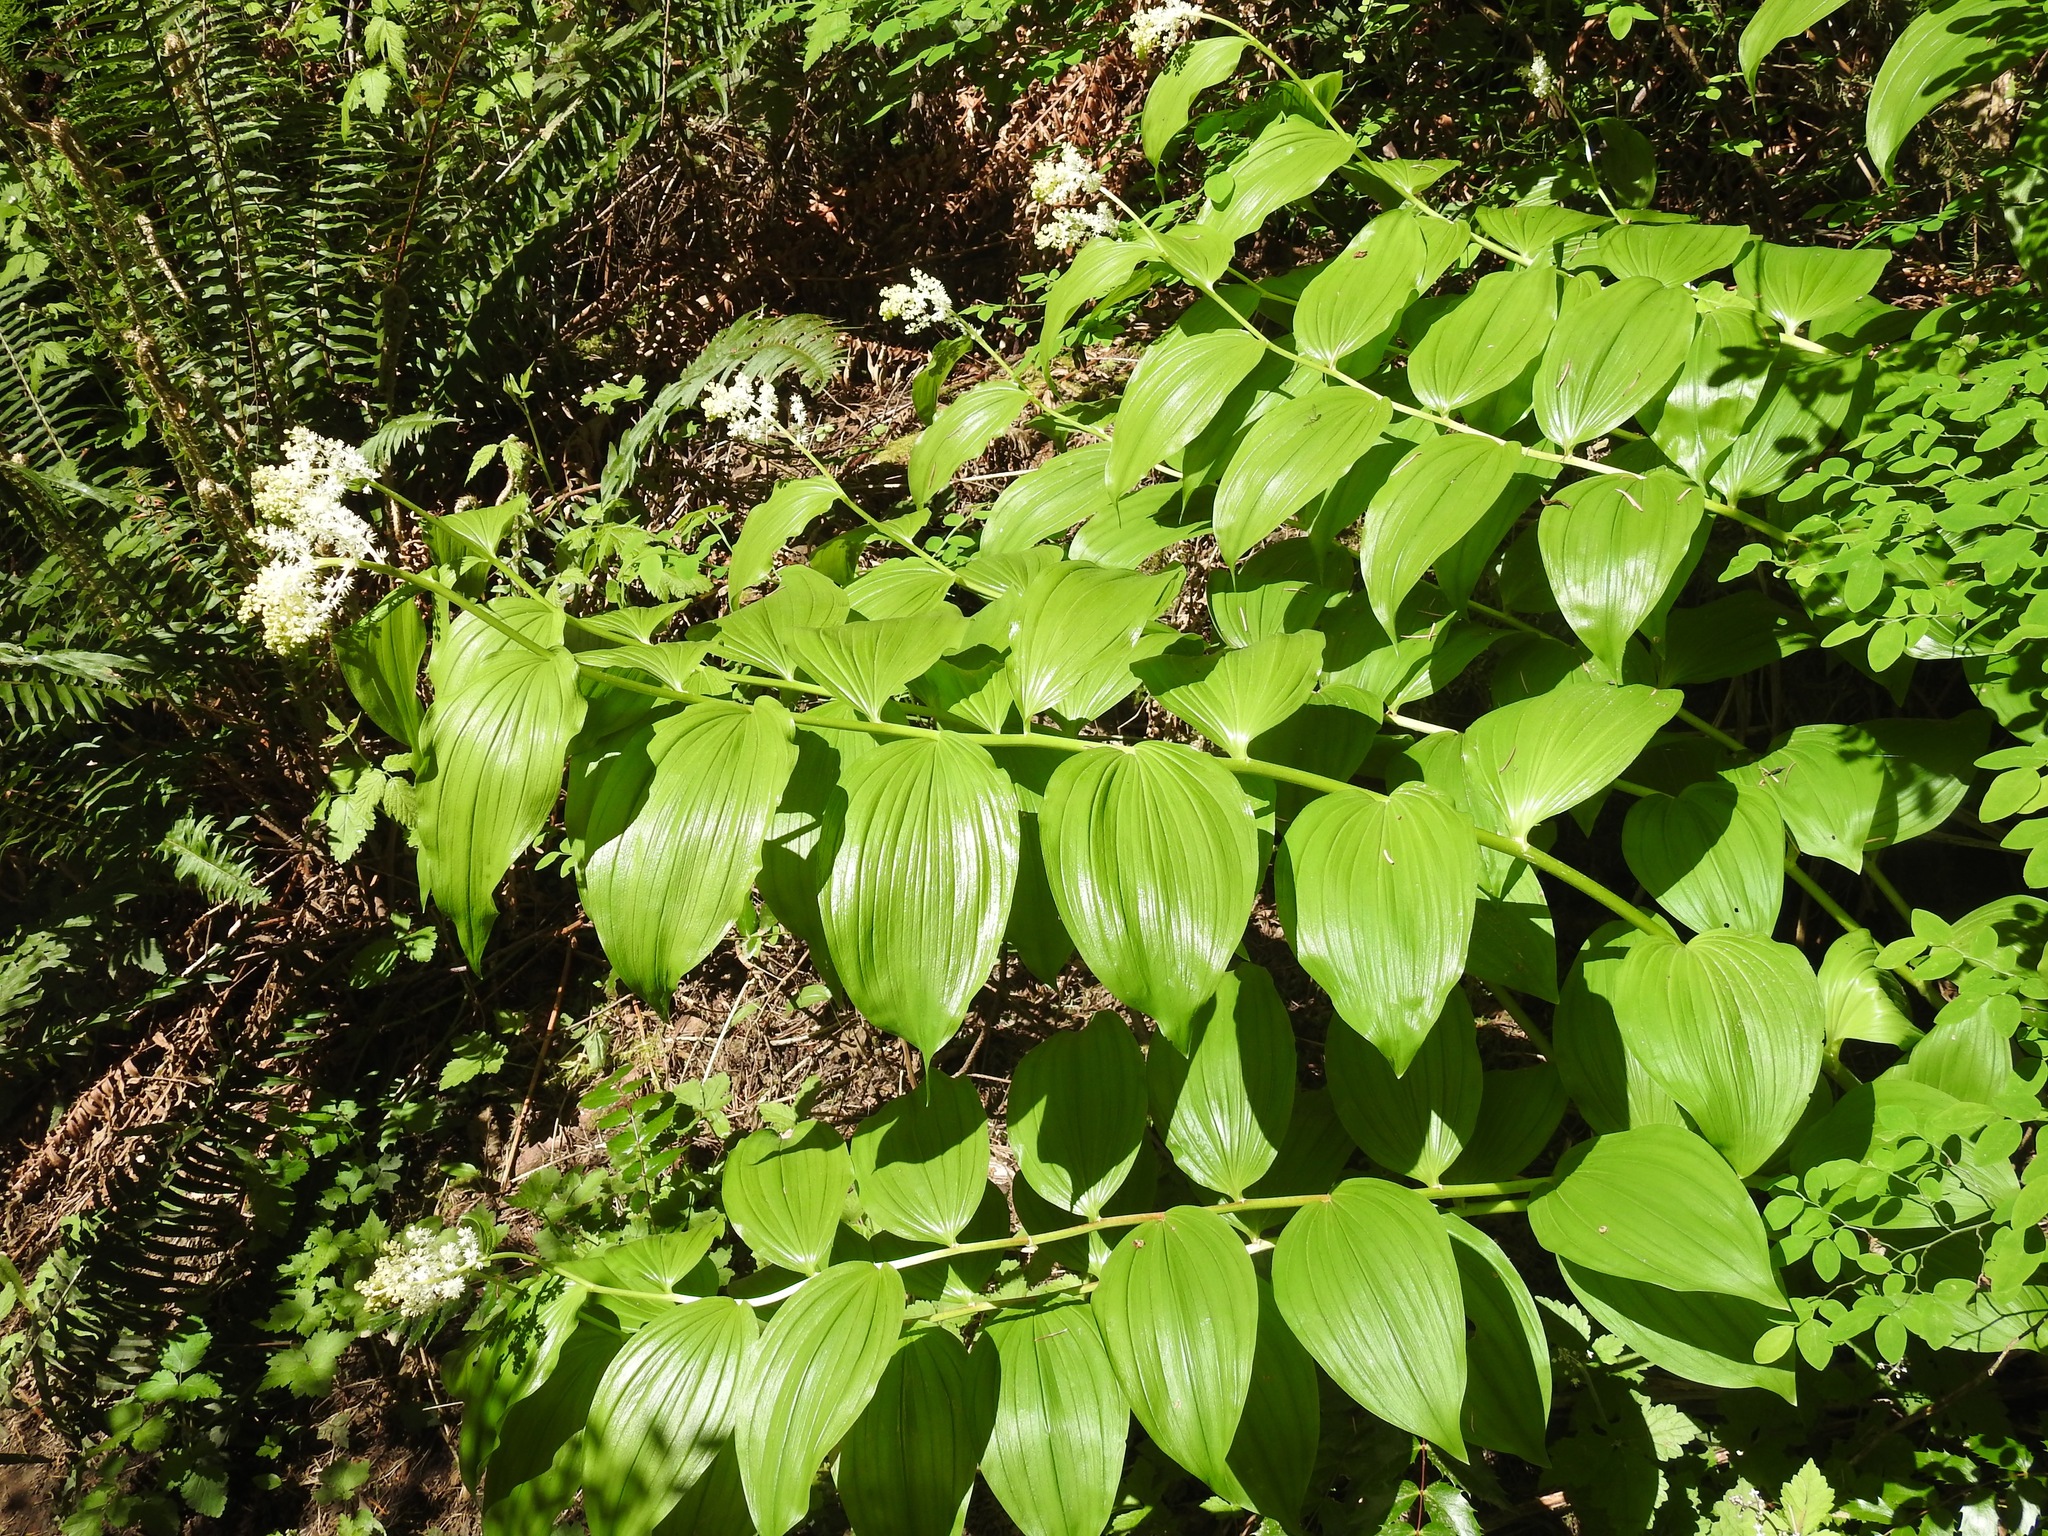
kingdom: Plantae
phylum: Tracheophyta
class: Liliopsida
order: Asparagales
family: Asparagaceae
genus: Maianthemum
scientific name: Maianthemum racemosum
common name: False spikenard
